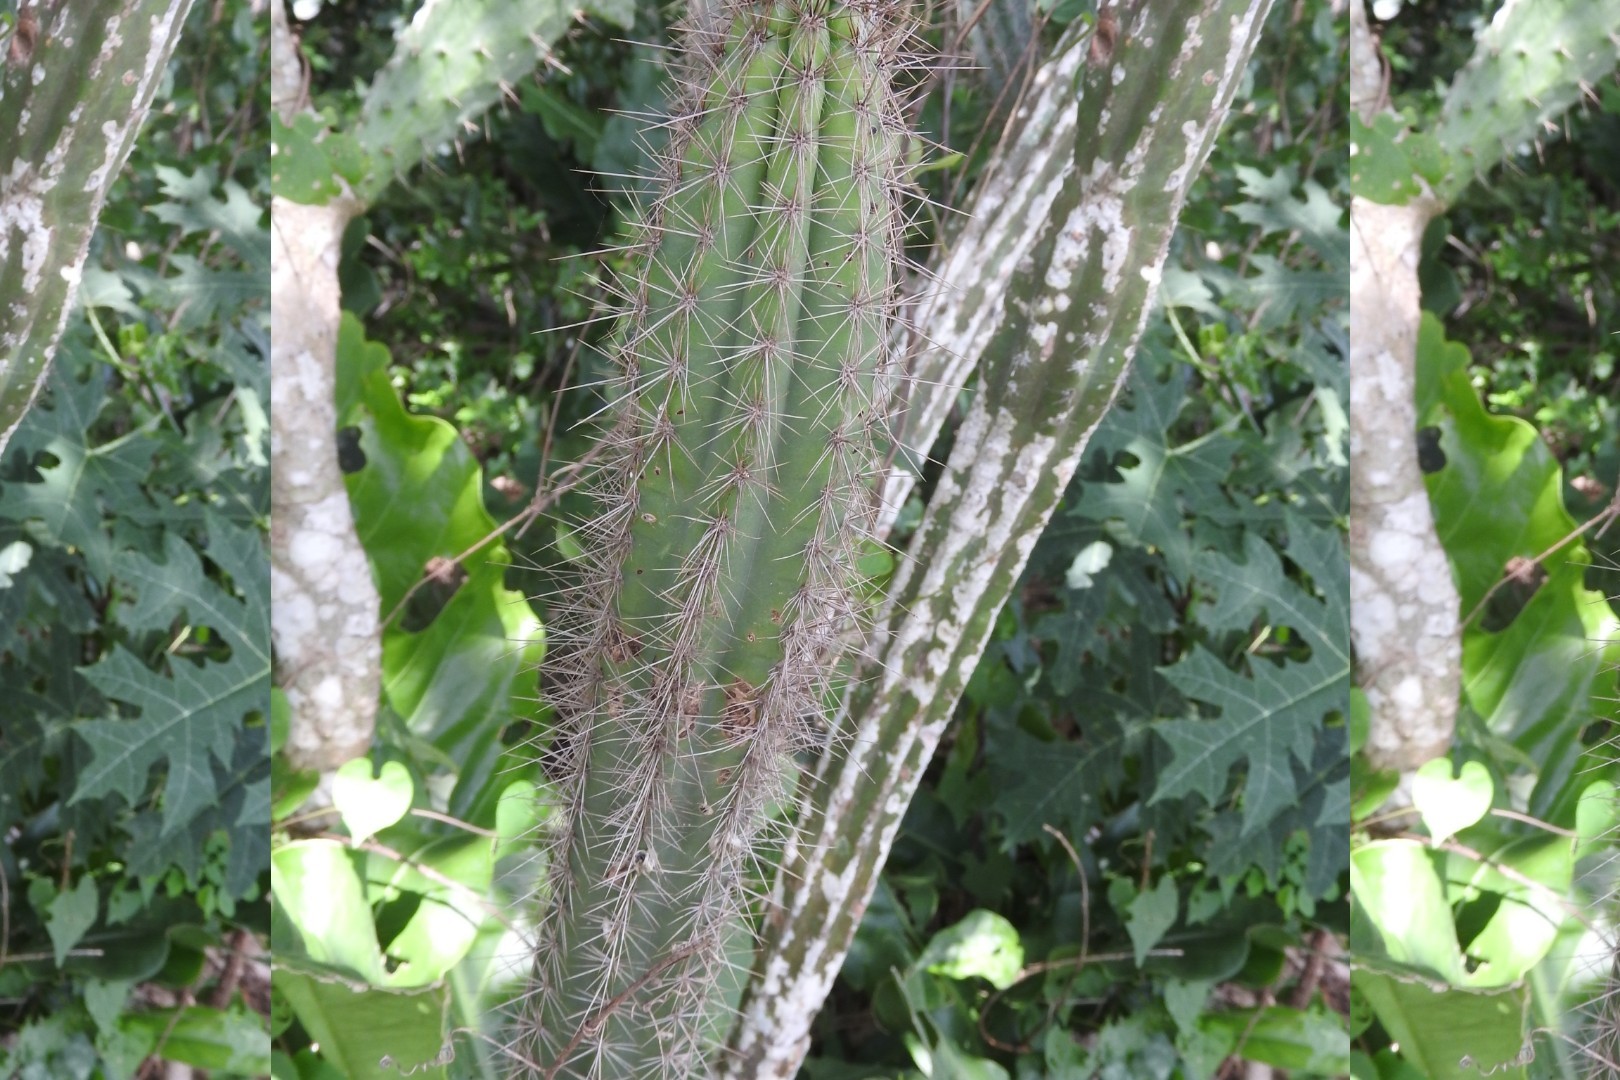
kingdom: Plantae
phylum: Tracheophyta
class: Magnoliopsida
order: Caryophyllales
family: Cactaceae
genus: Pilosocereus
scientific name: Pilosocereus gaumeri
